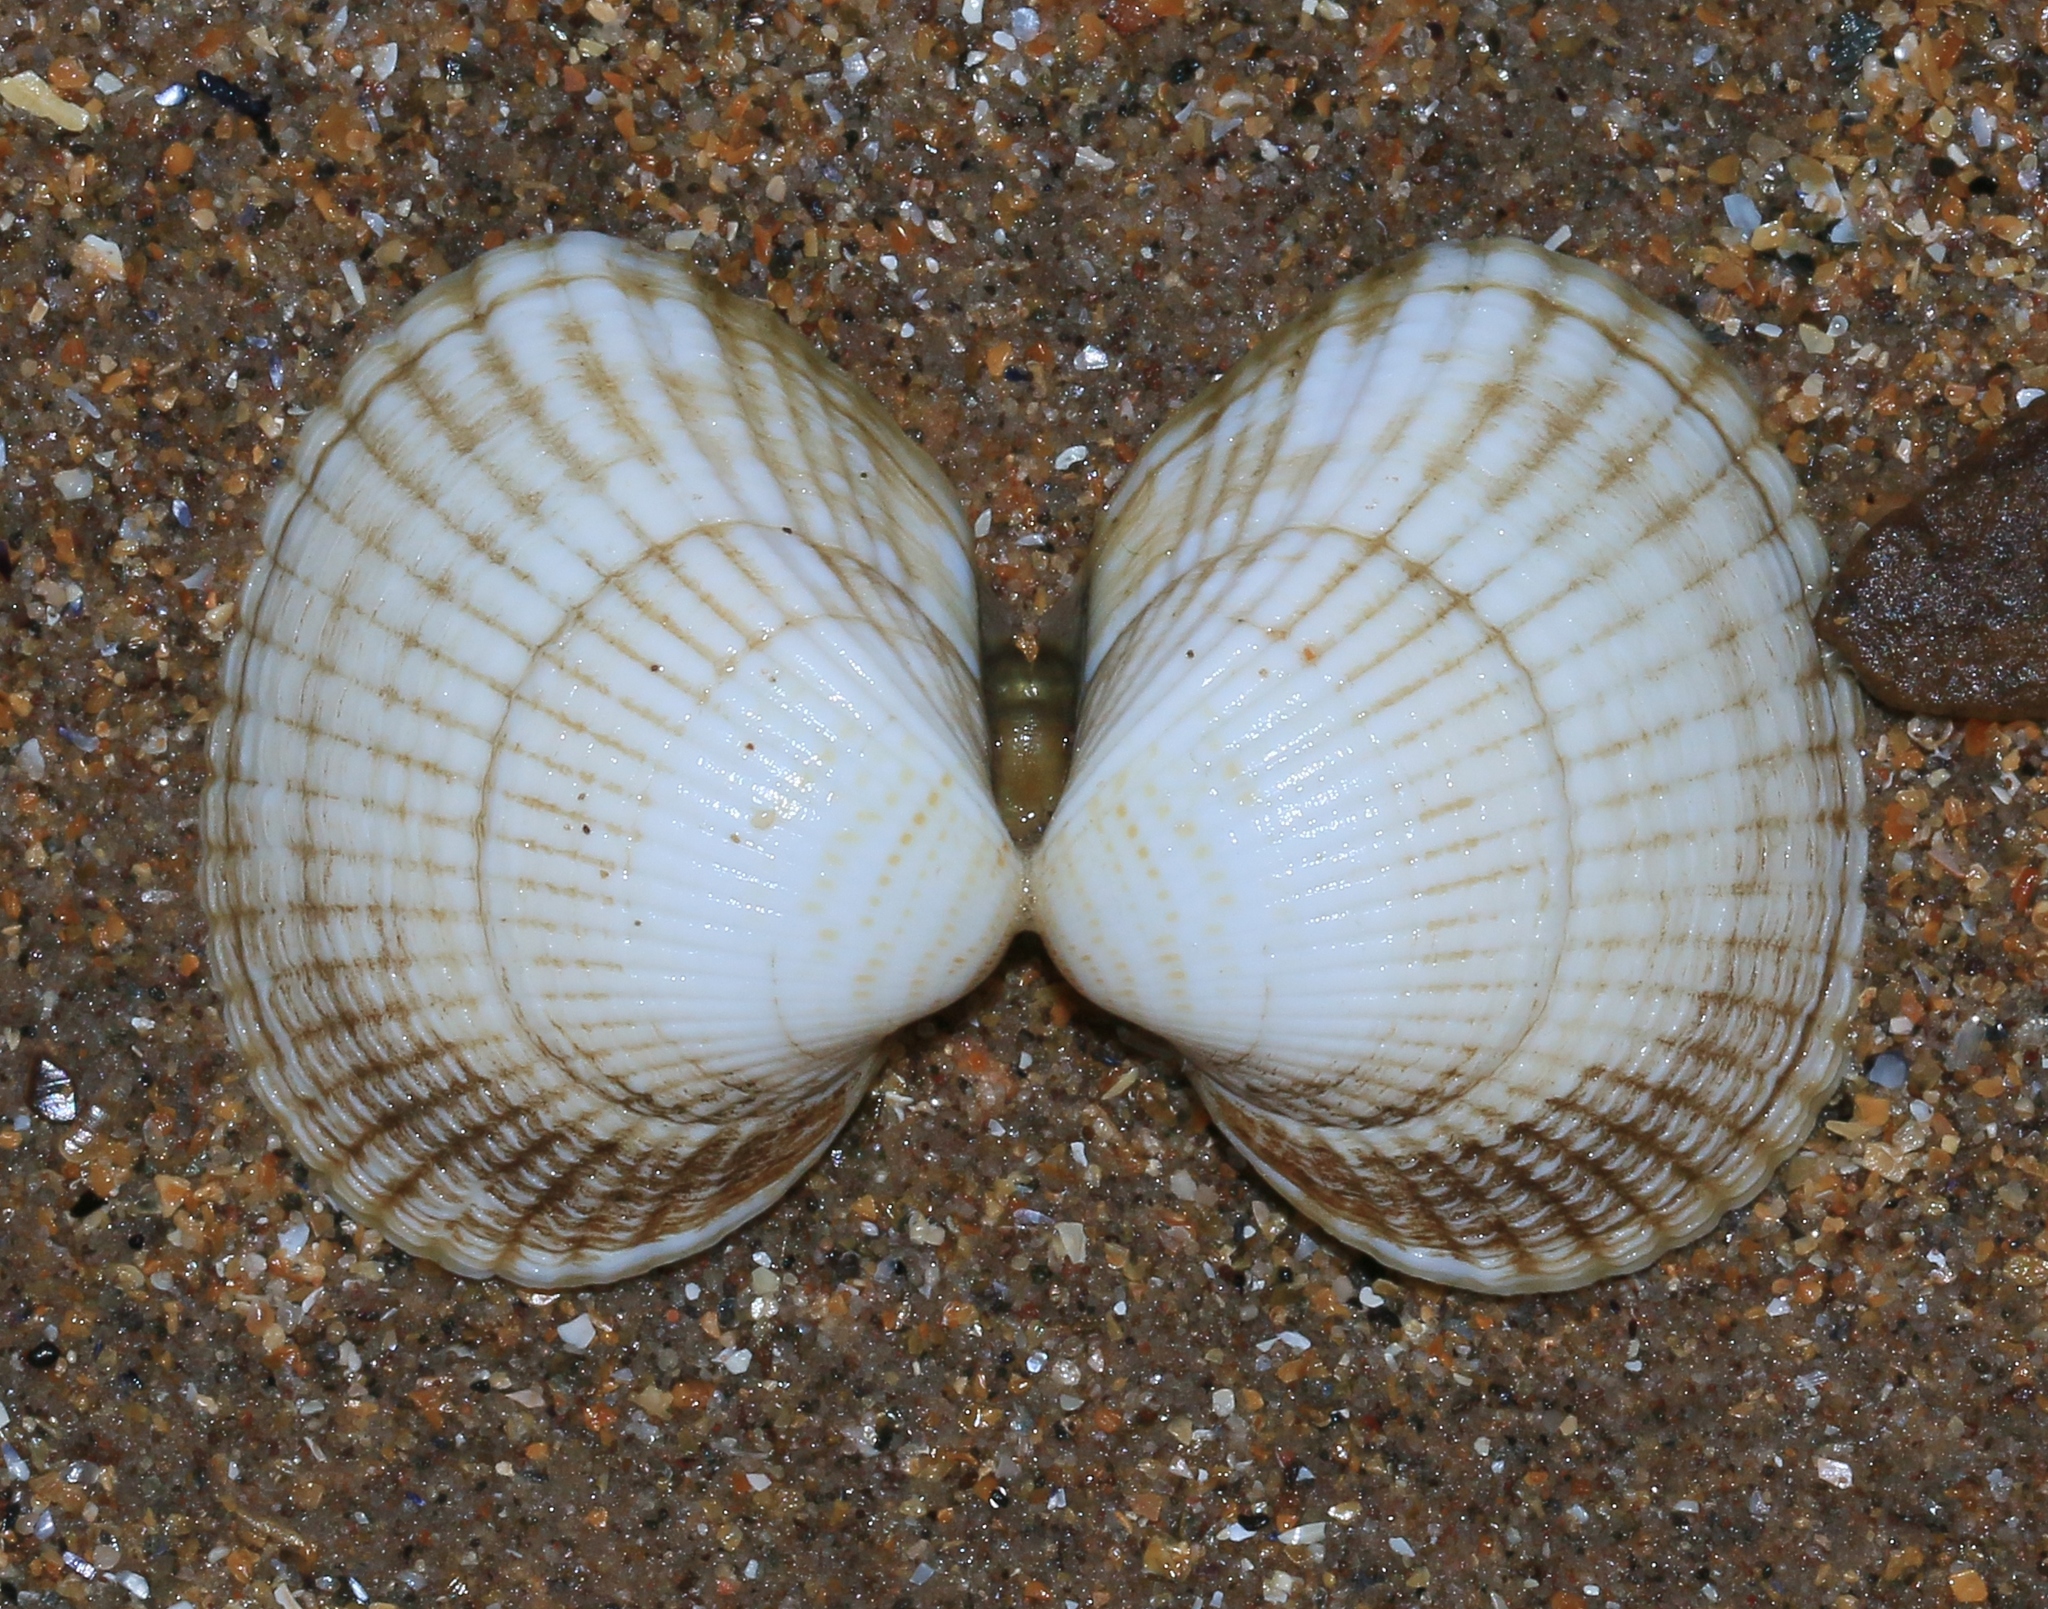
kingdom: Animalia
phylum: Mollusca
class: Bivalvia
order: Cardiida
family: Cardiidae
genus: Cerastoderma
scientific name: Cerastoderma edule
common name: Common cockle
